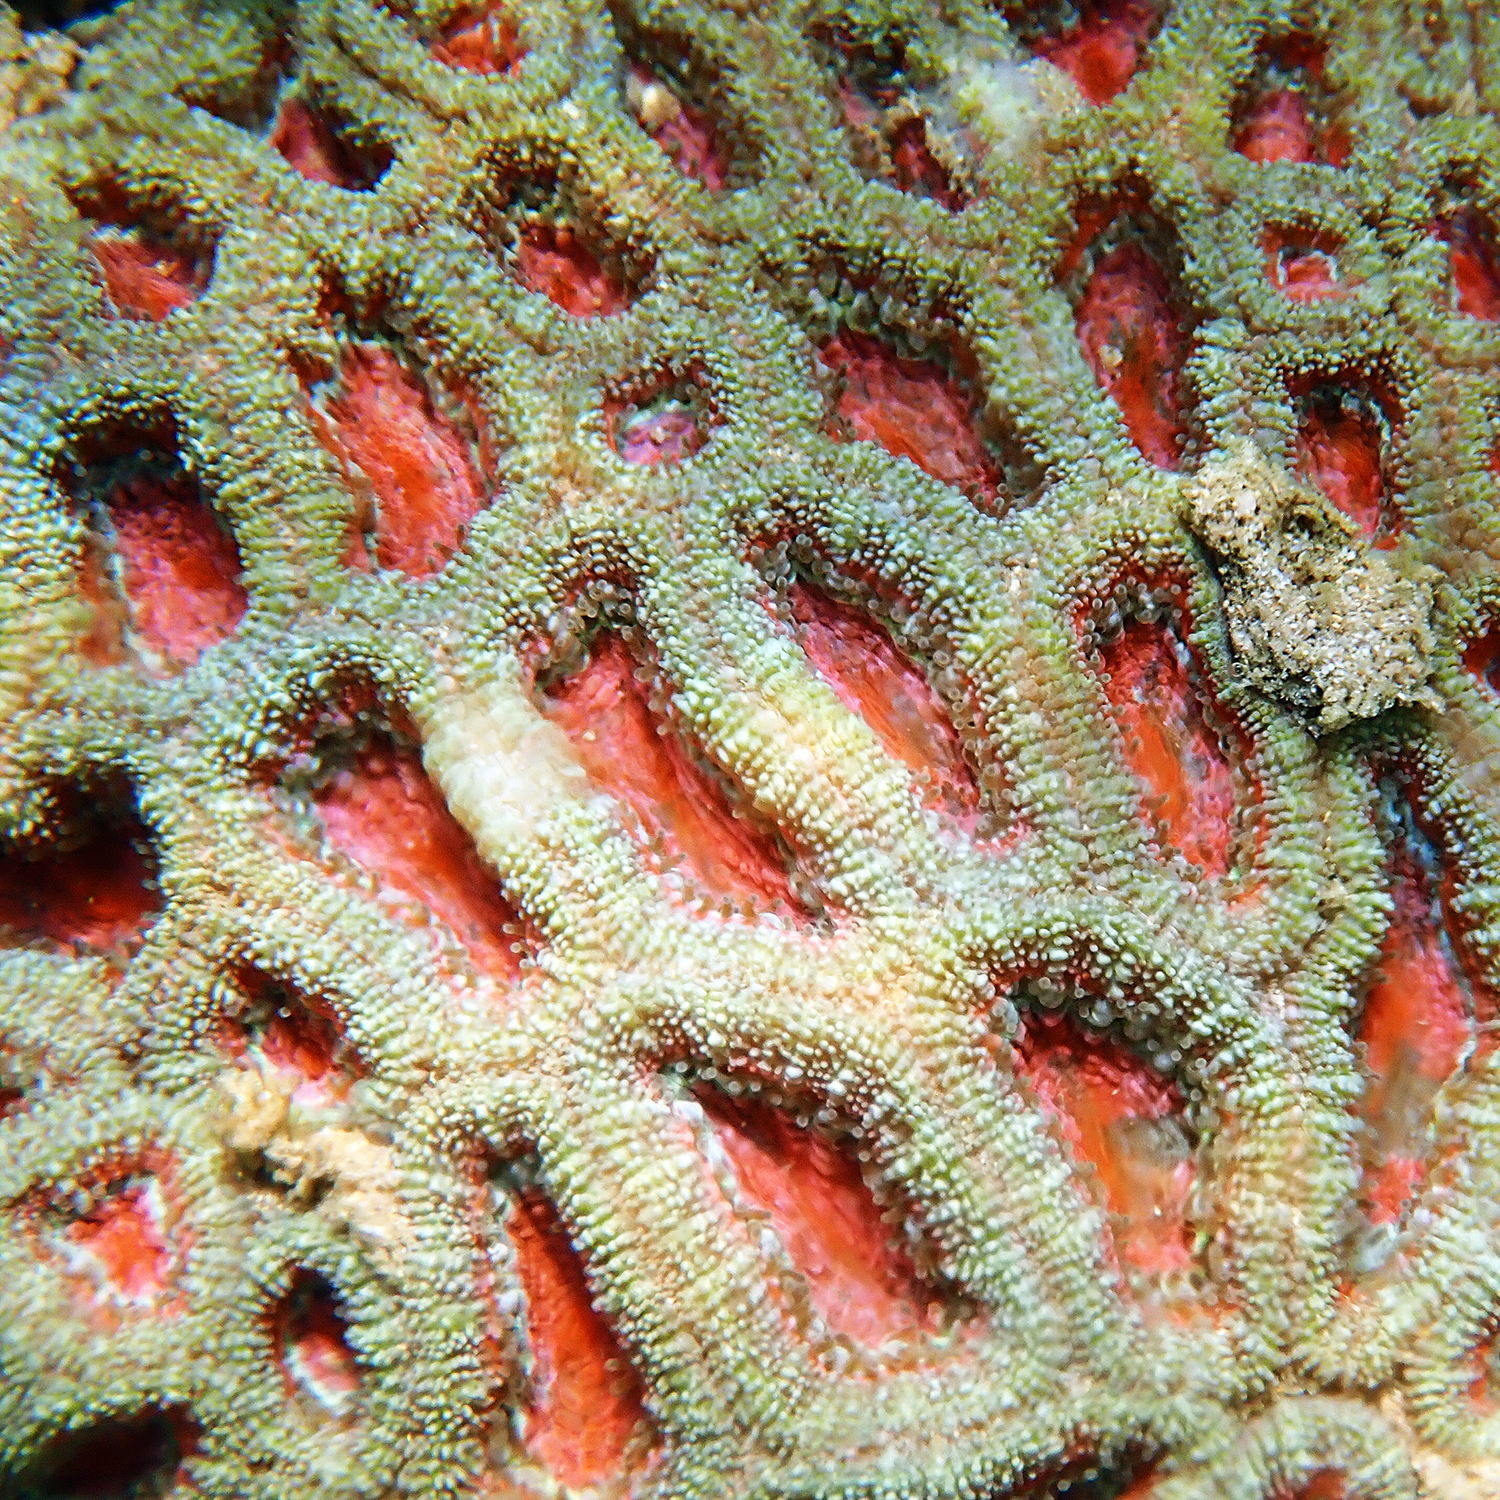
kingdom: Animalia
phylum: Cnidaria
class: Anthozoa
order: Scleractinia
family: Lobophylliidae
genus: Micromussa
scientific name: Micromussa lordhowensis
